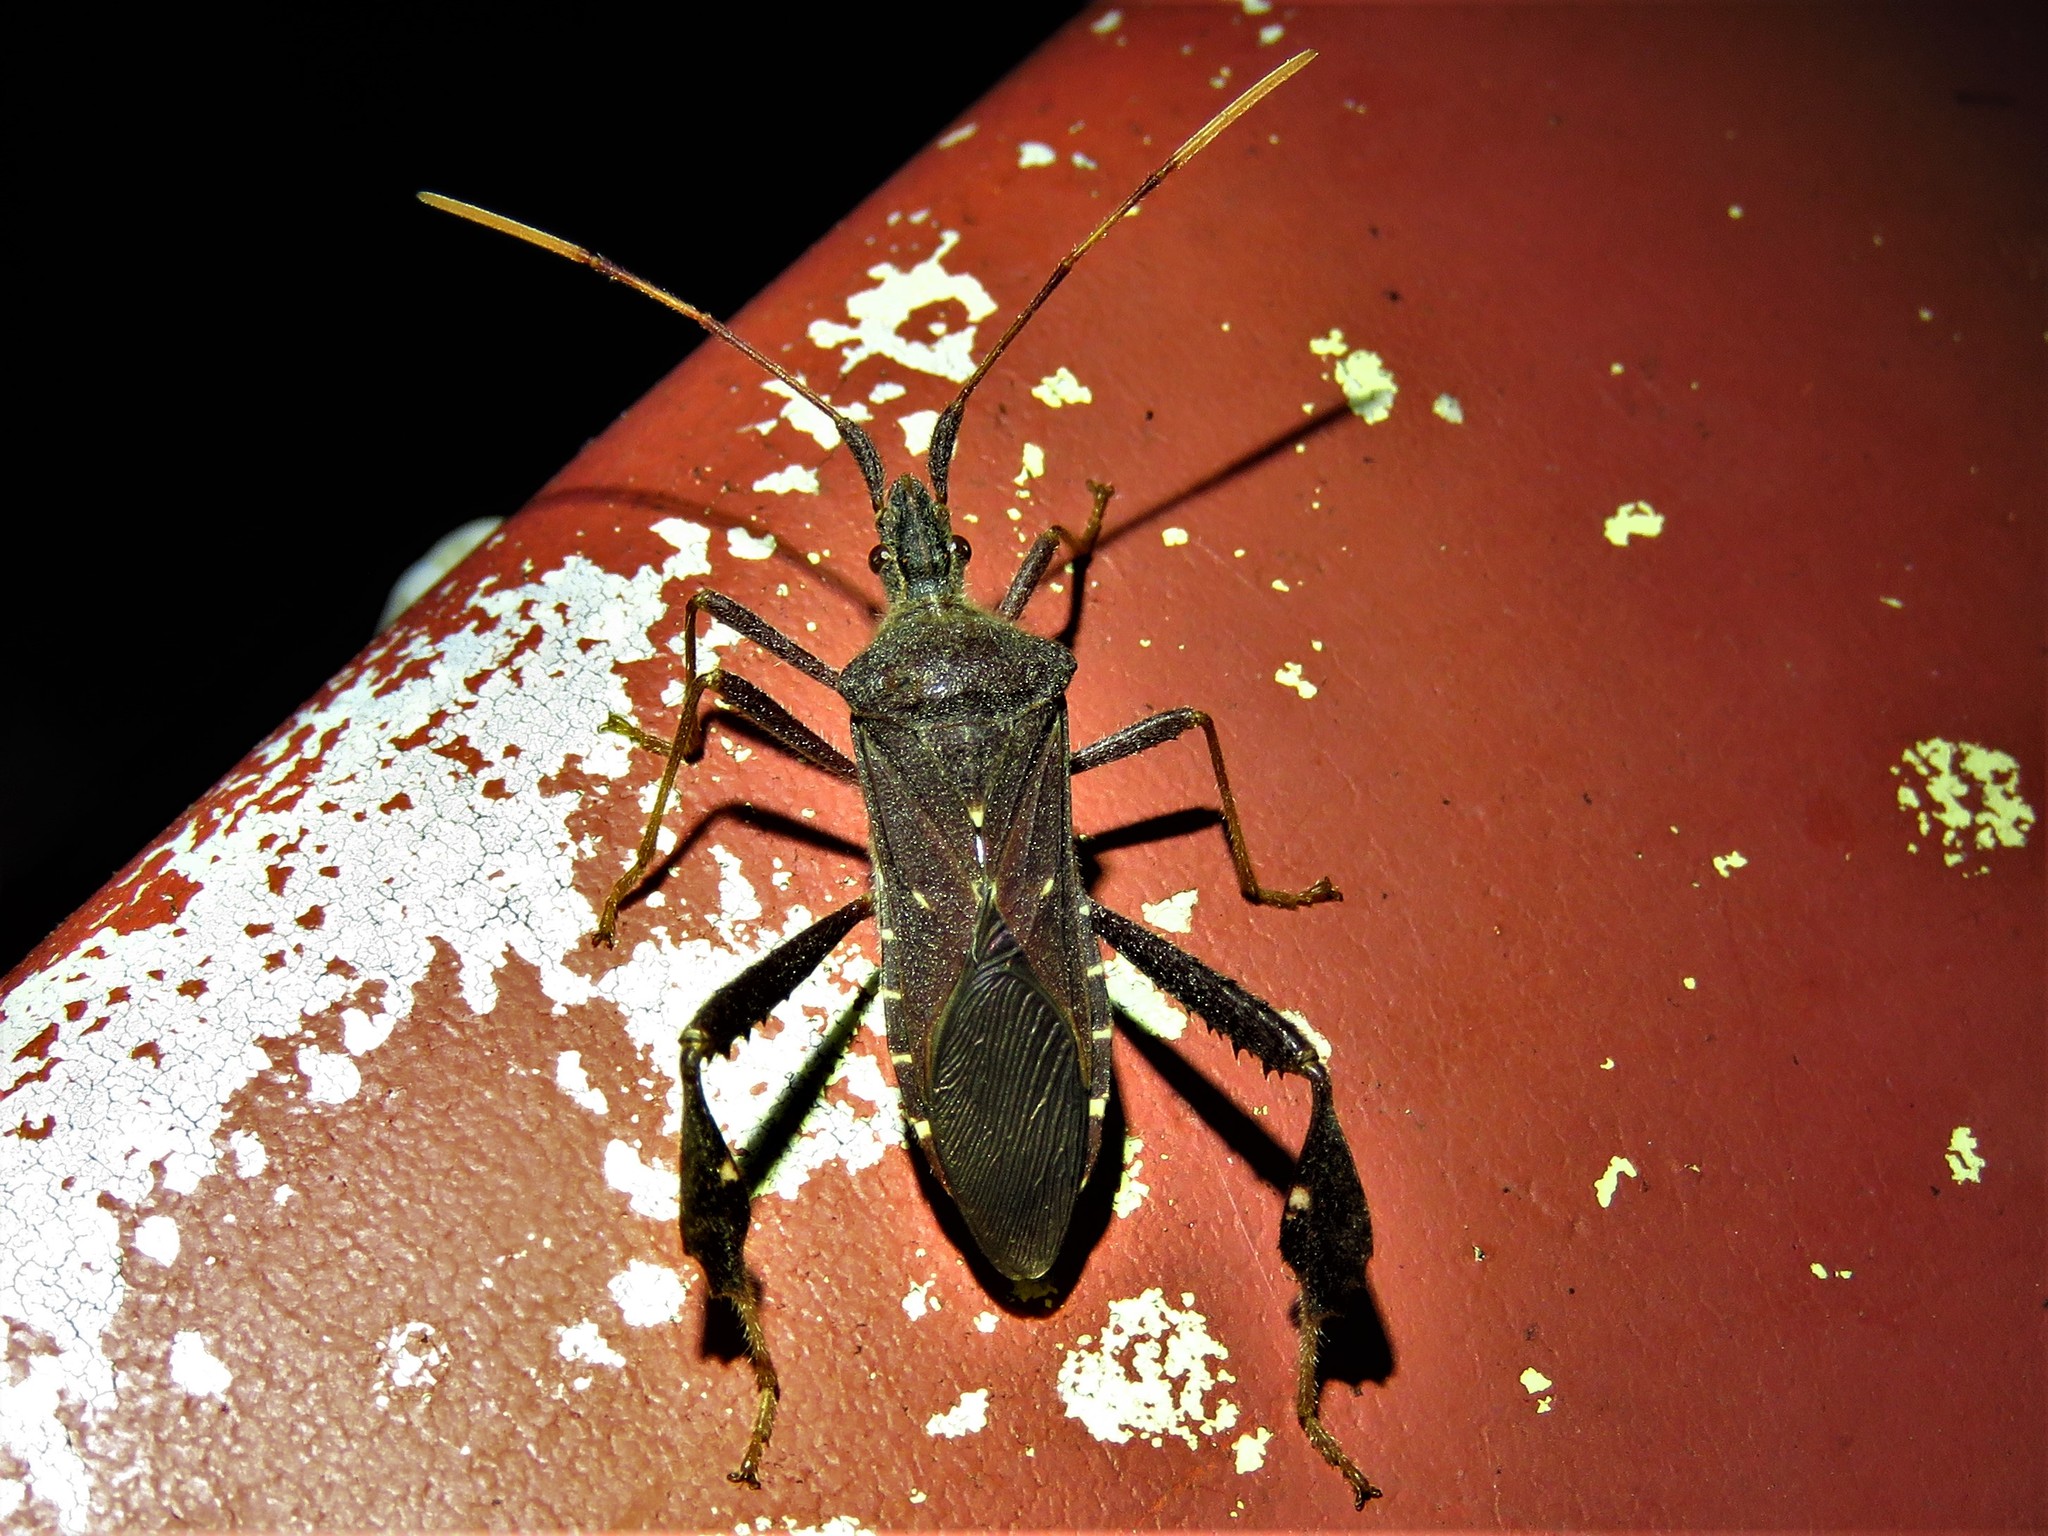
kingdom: Animalia
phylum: Arthropoda
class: Insecta
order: Hemiptera
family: Coreidae
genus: Leptoglossus
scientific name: Leptoglossus oppositus
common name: Northern leaf-footed bug
